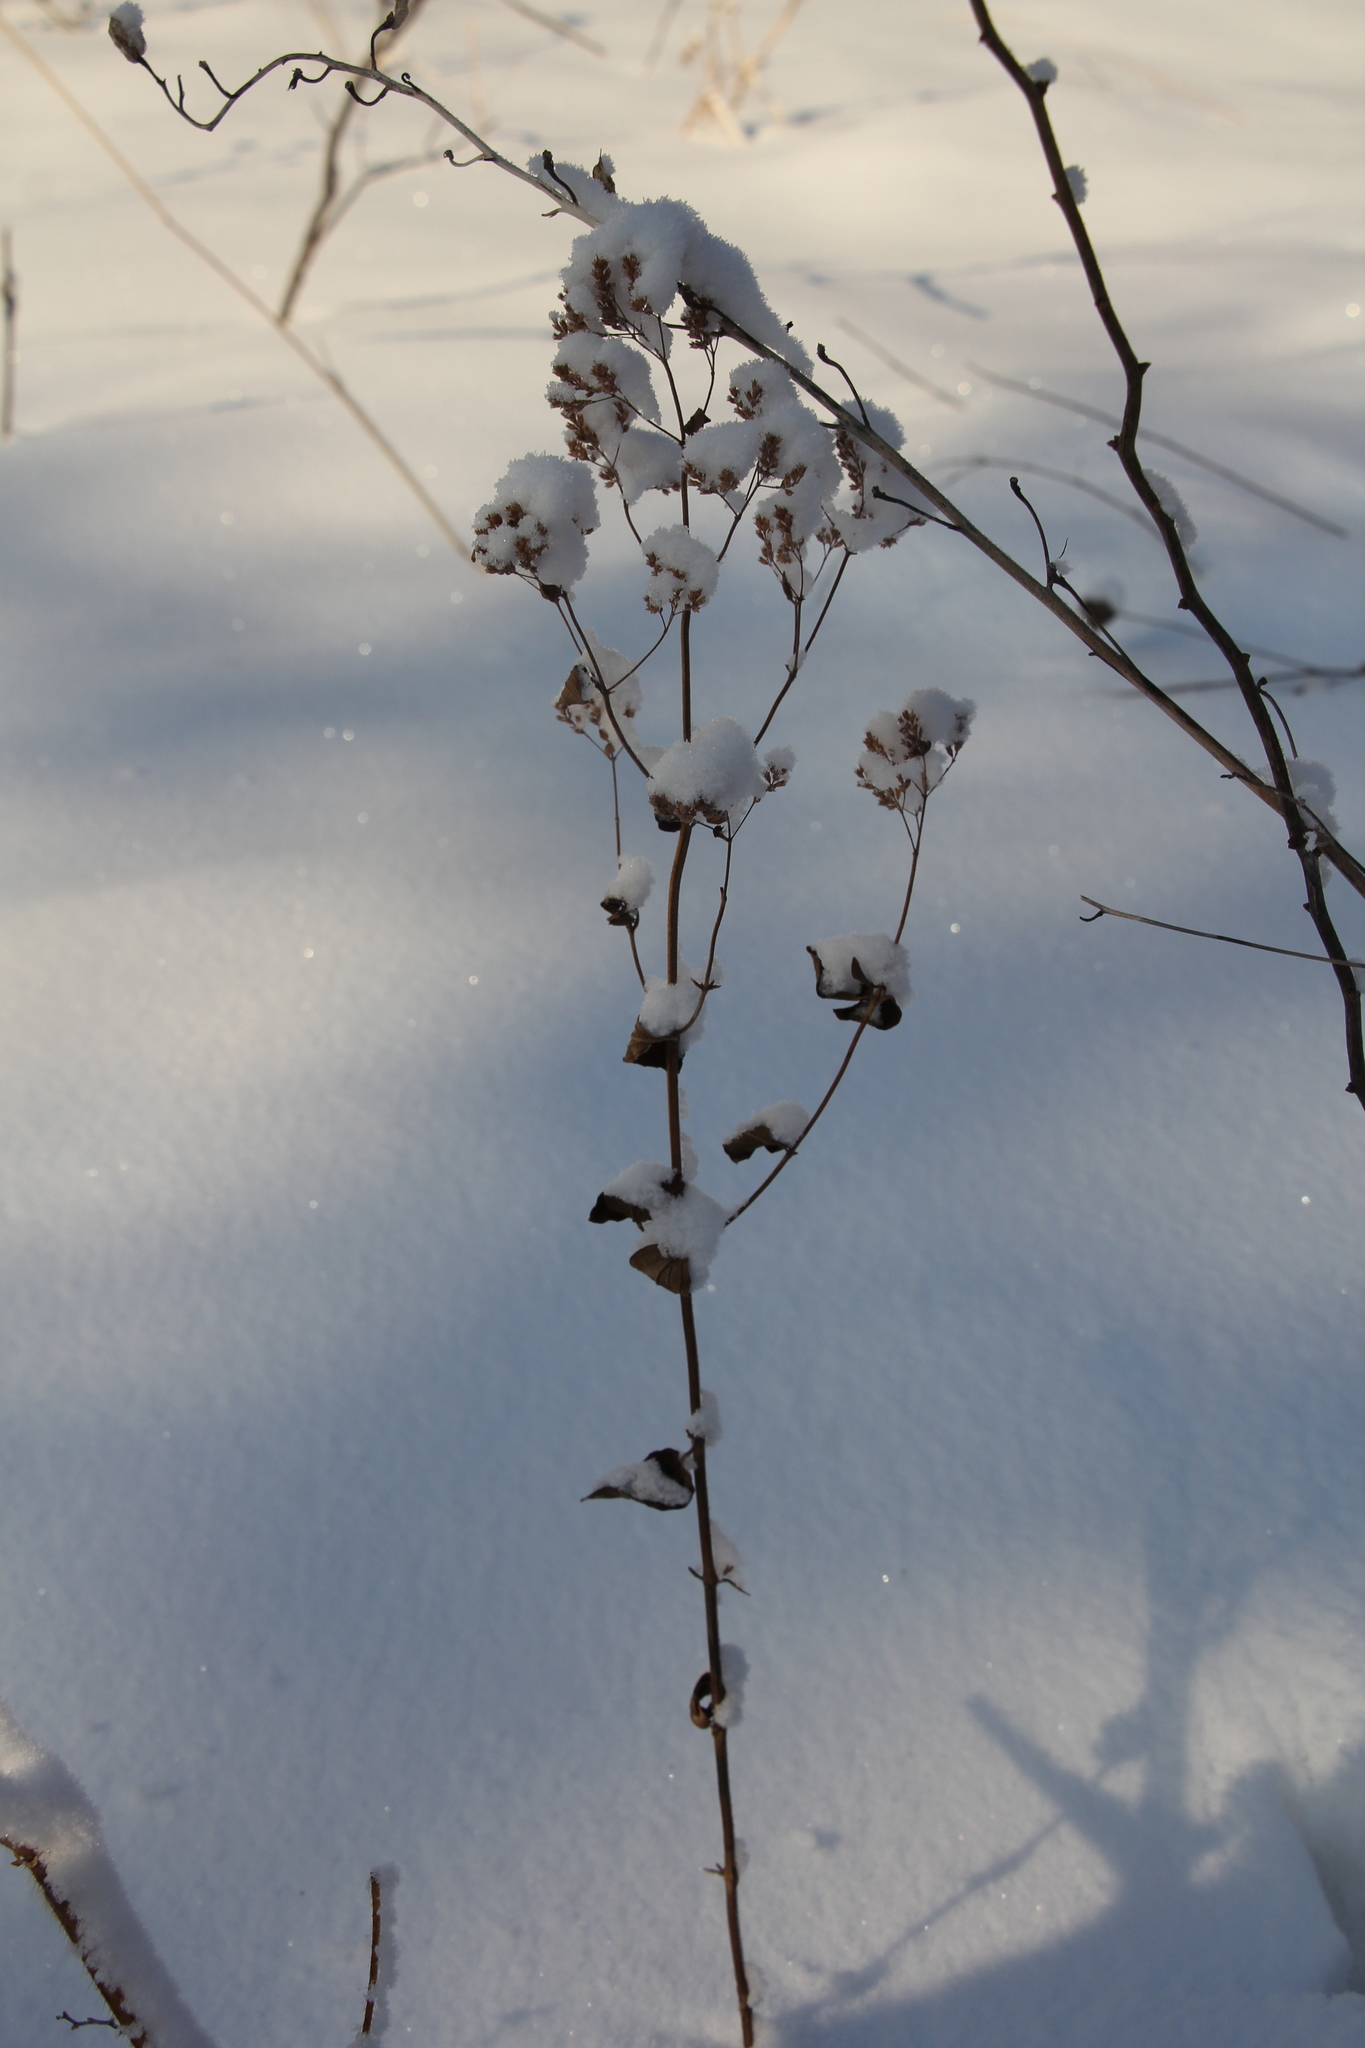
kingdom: Plantae
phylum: Tracheophyta
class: Magnoliopsida
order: Lamiales
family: Lamiaceae
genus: Origanum
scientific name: Origanum vulgare
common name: Wild marjoram
